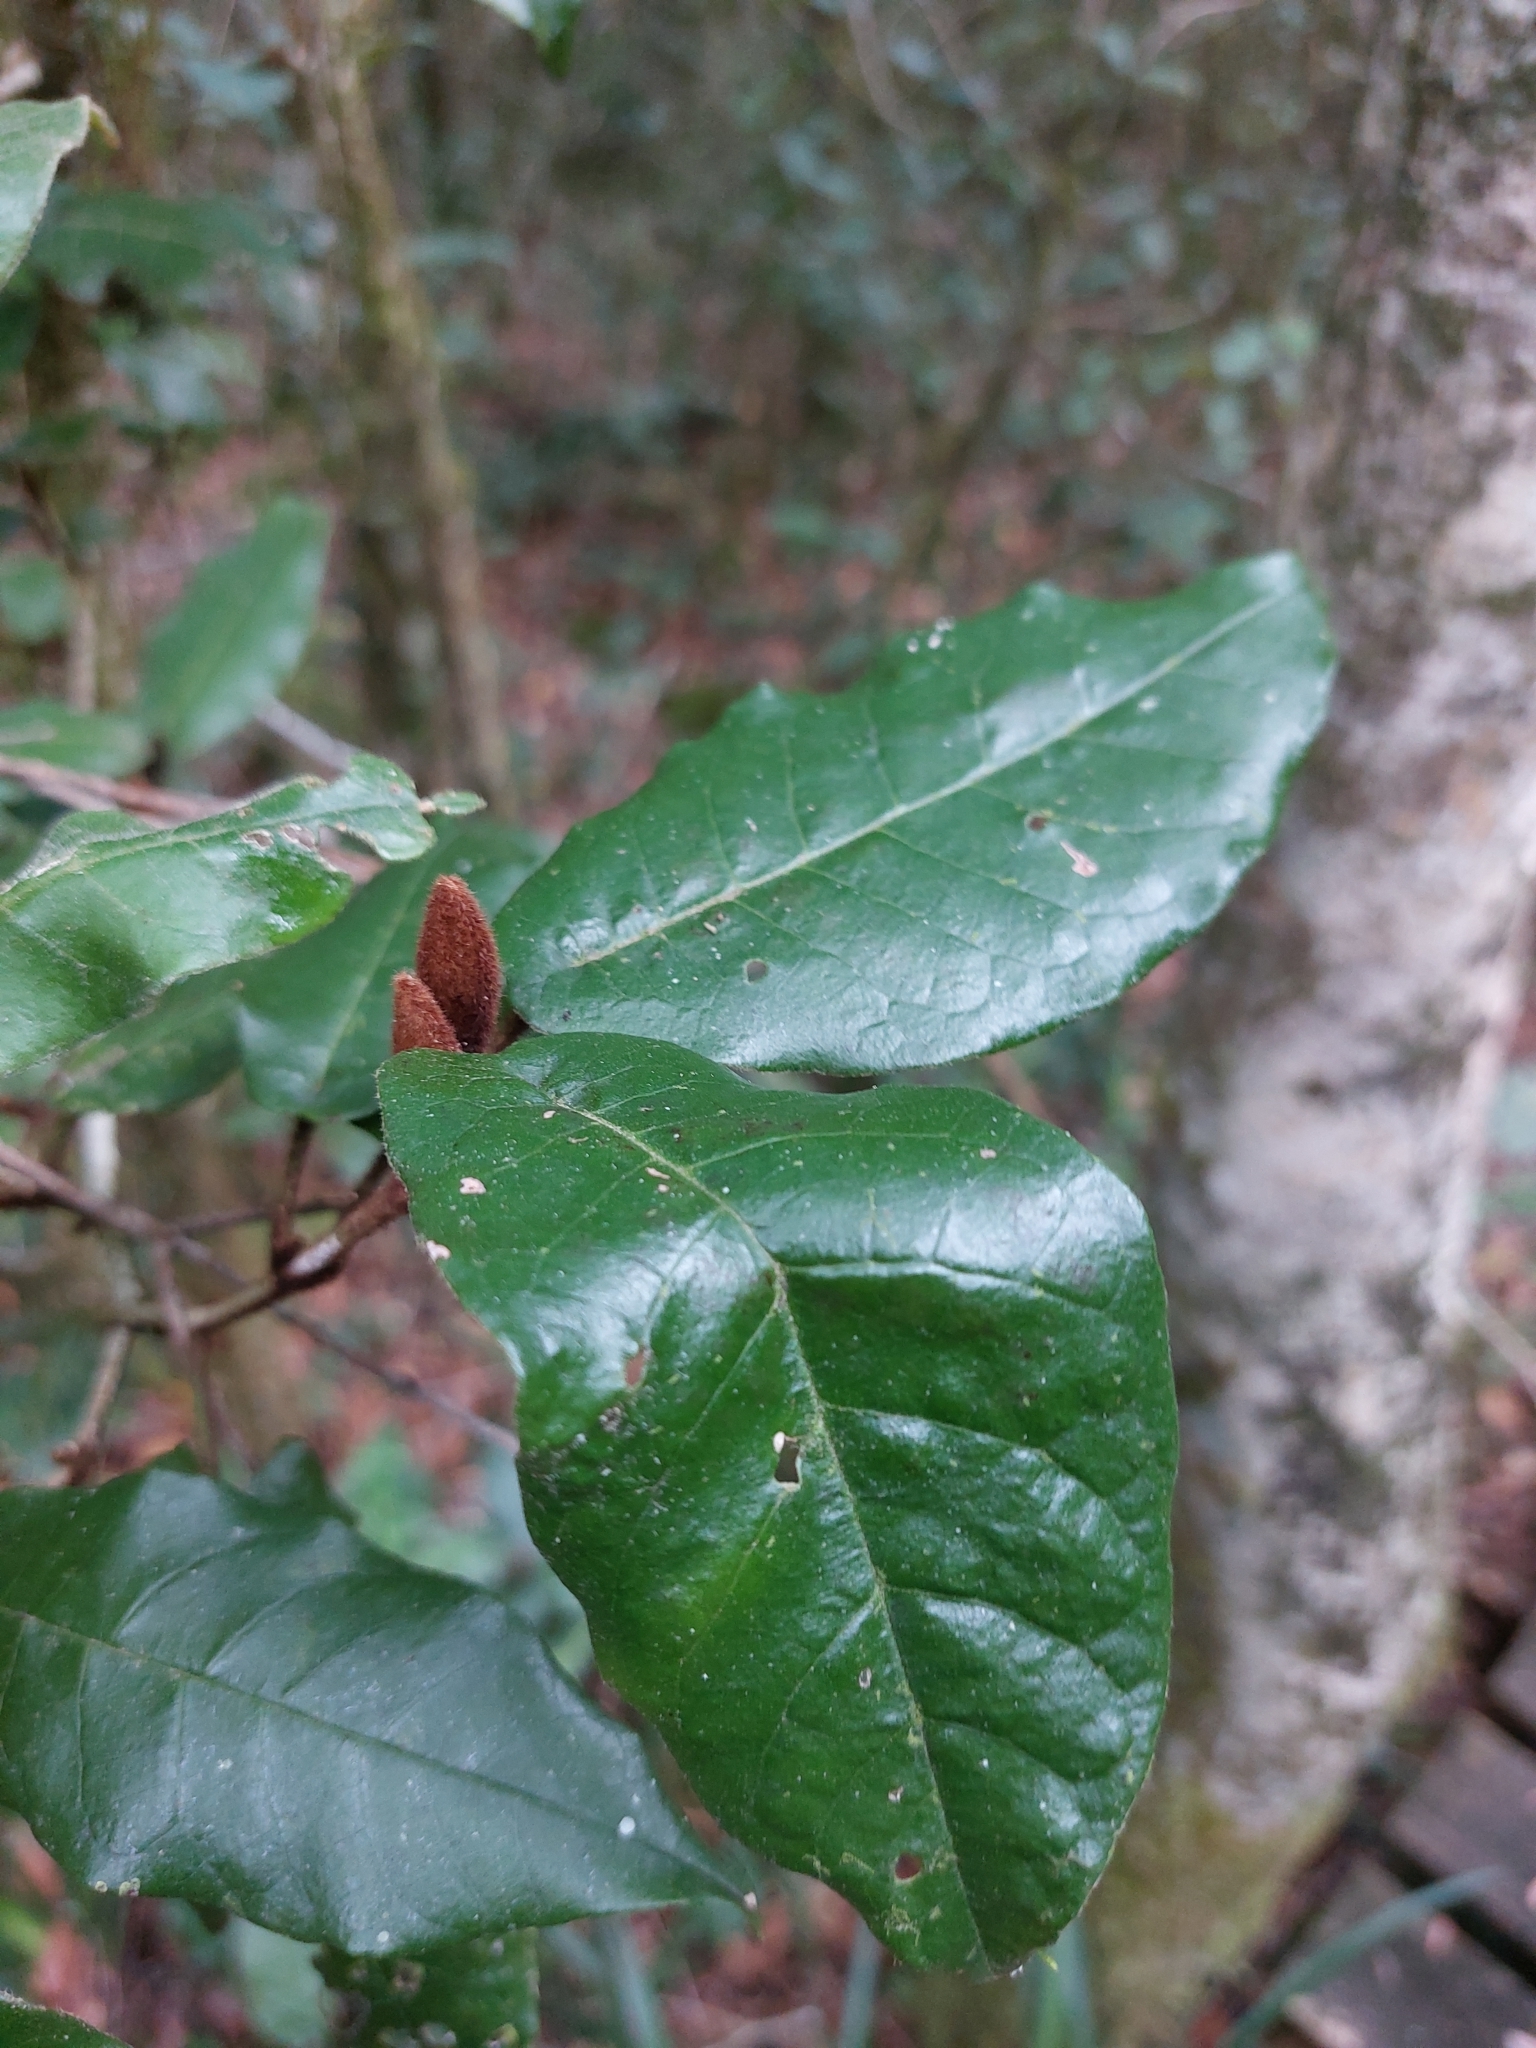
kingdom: Plantae
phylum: Tracheophyta
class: Magnoliopsida
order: Saxifragales
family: Hamamelidaceae
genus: Trichocladus
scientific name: Trichocladus crinitus
